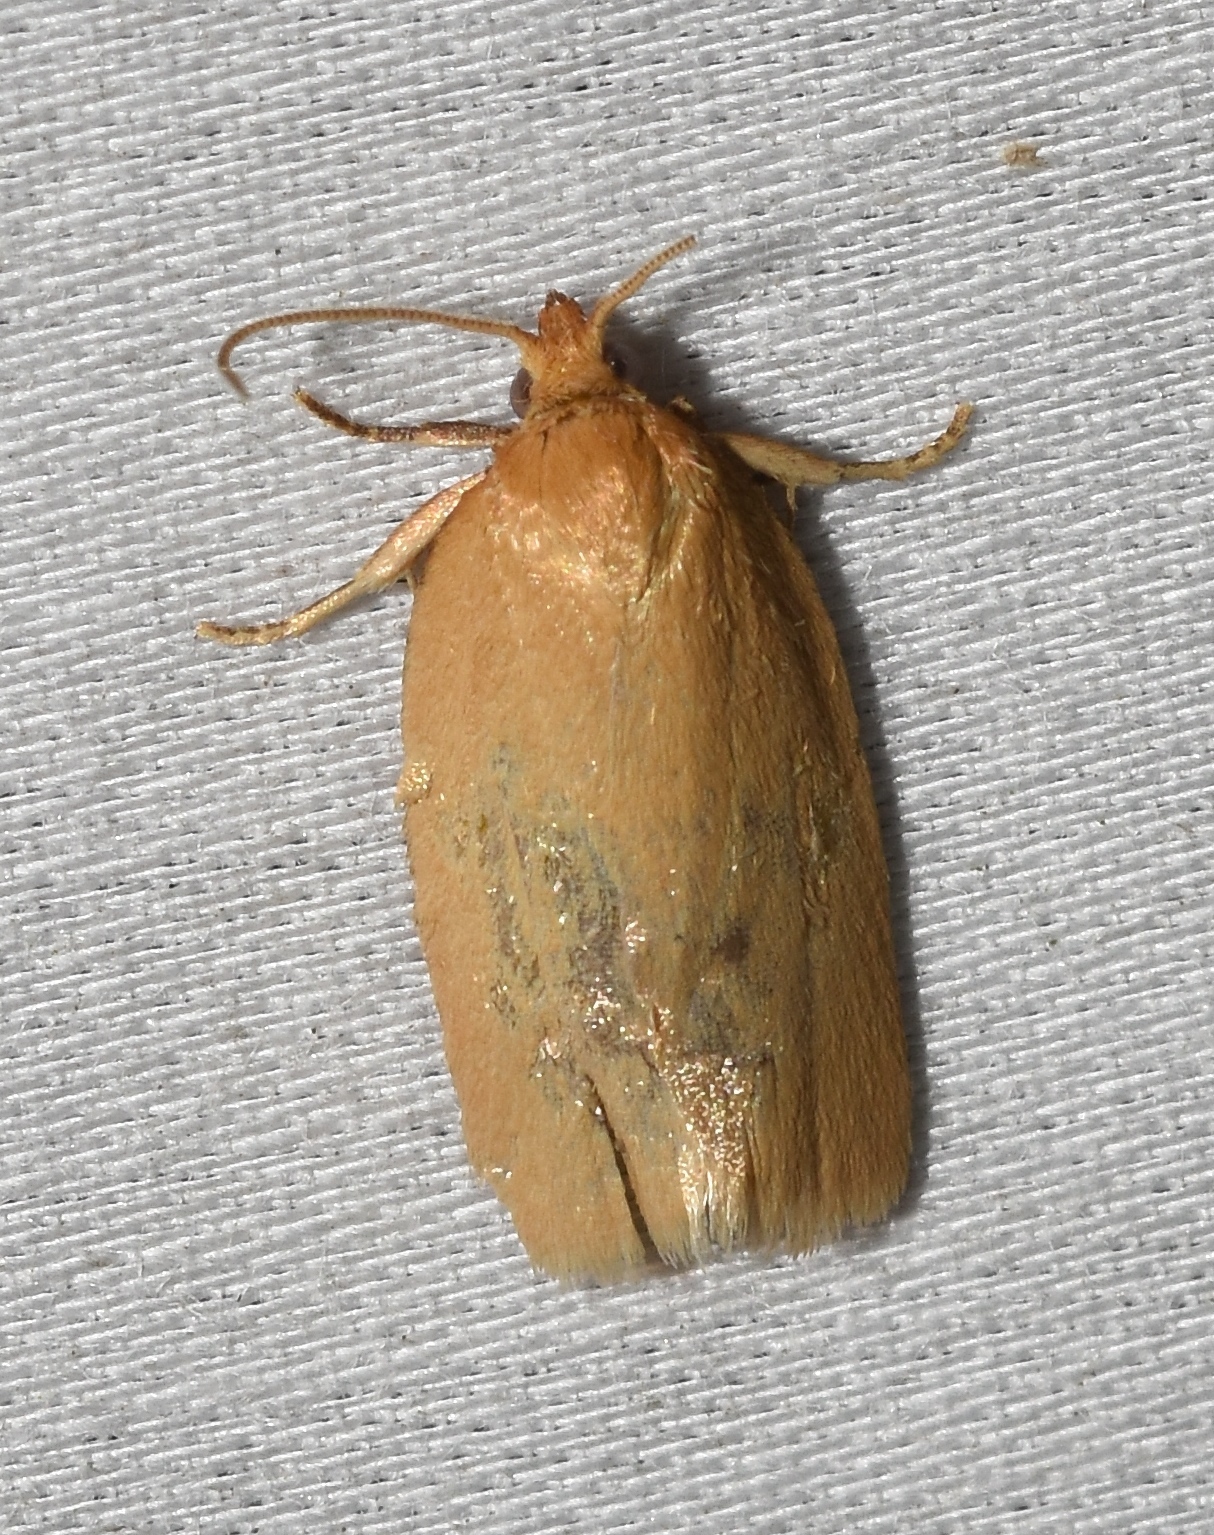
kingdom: Animalia
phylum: Arthropoda
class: Insecta
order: Lepidoptera
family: Tortricidae
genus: Xenotemna
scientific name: Xenotemna pallorana
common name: Pallid leafroller moth
